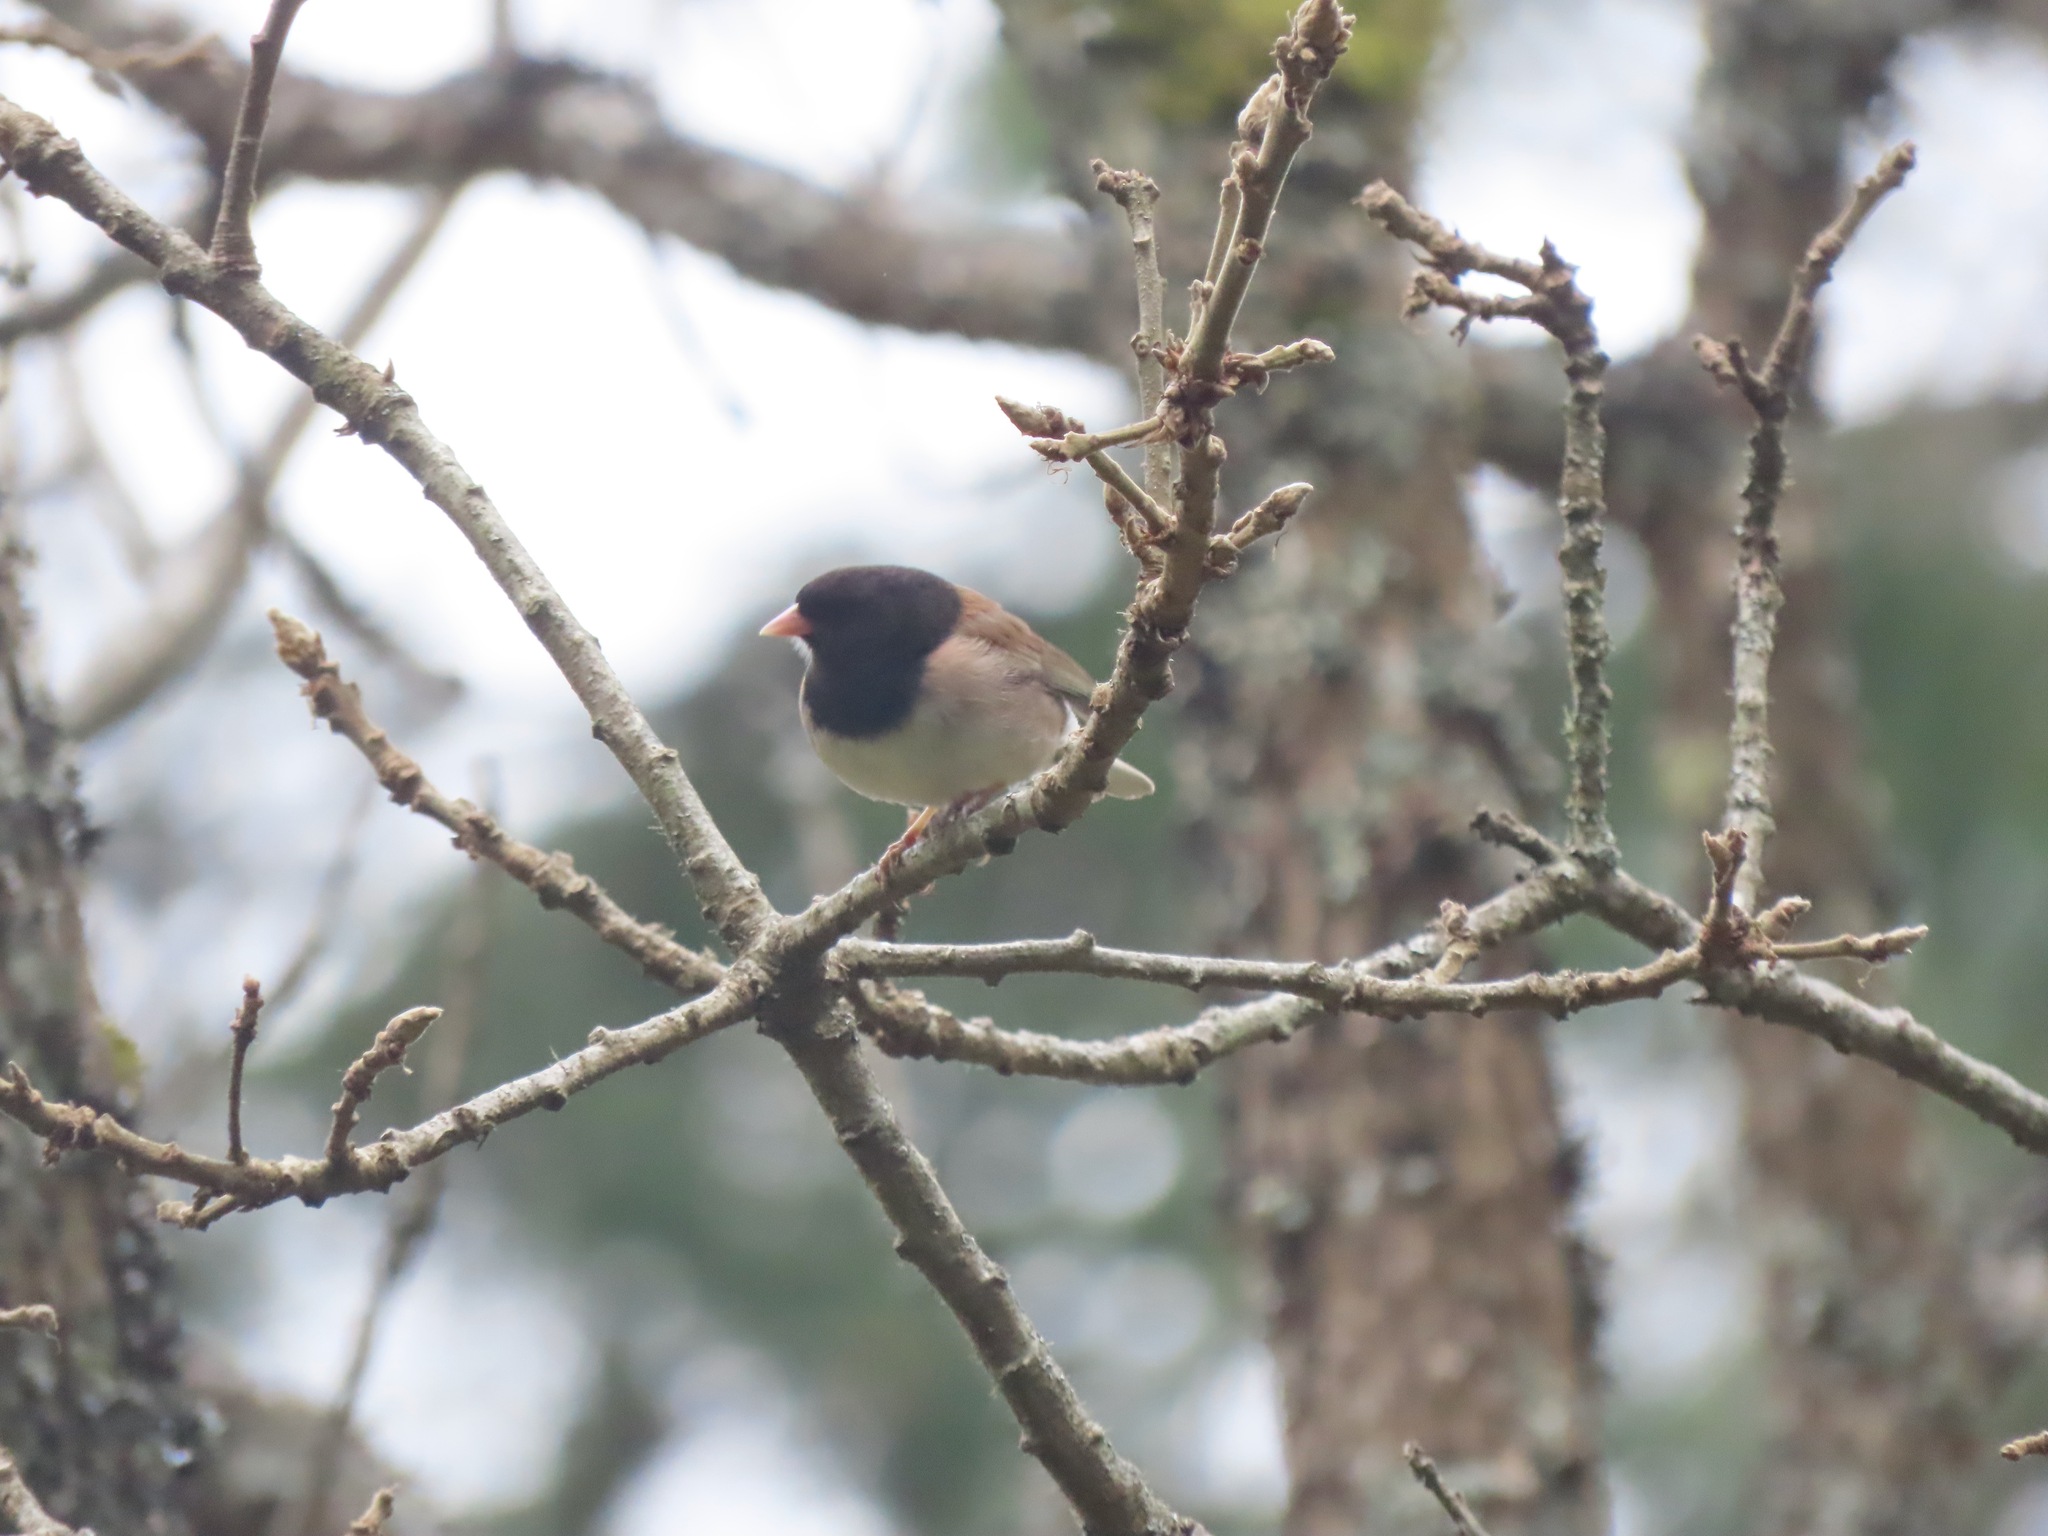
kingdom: Animalia
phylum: Chordata
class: Aves
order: Passeriformes
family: Passerellidae
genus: Junco
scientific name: Junco hyemalis
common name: Dark-eyed junco
